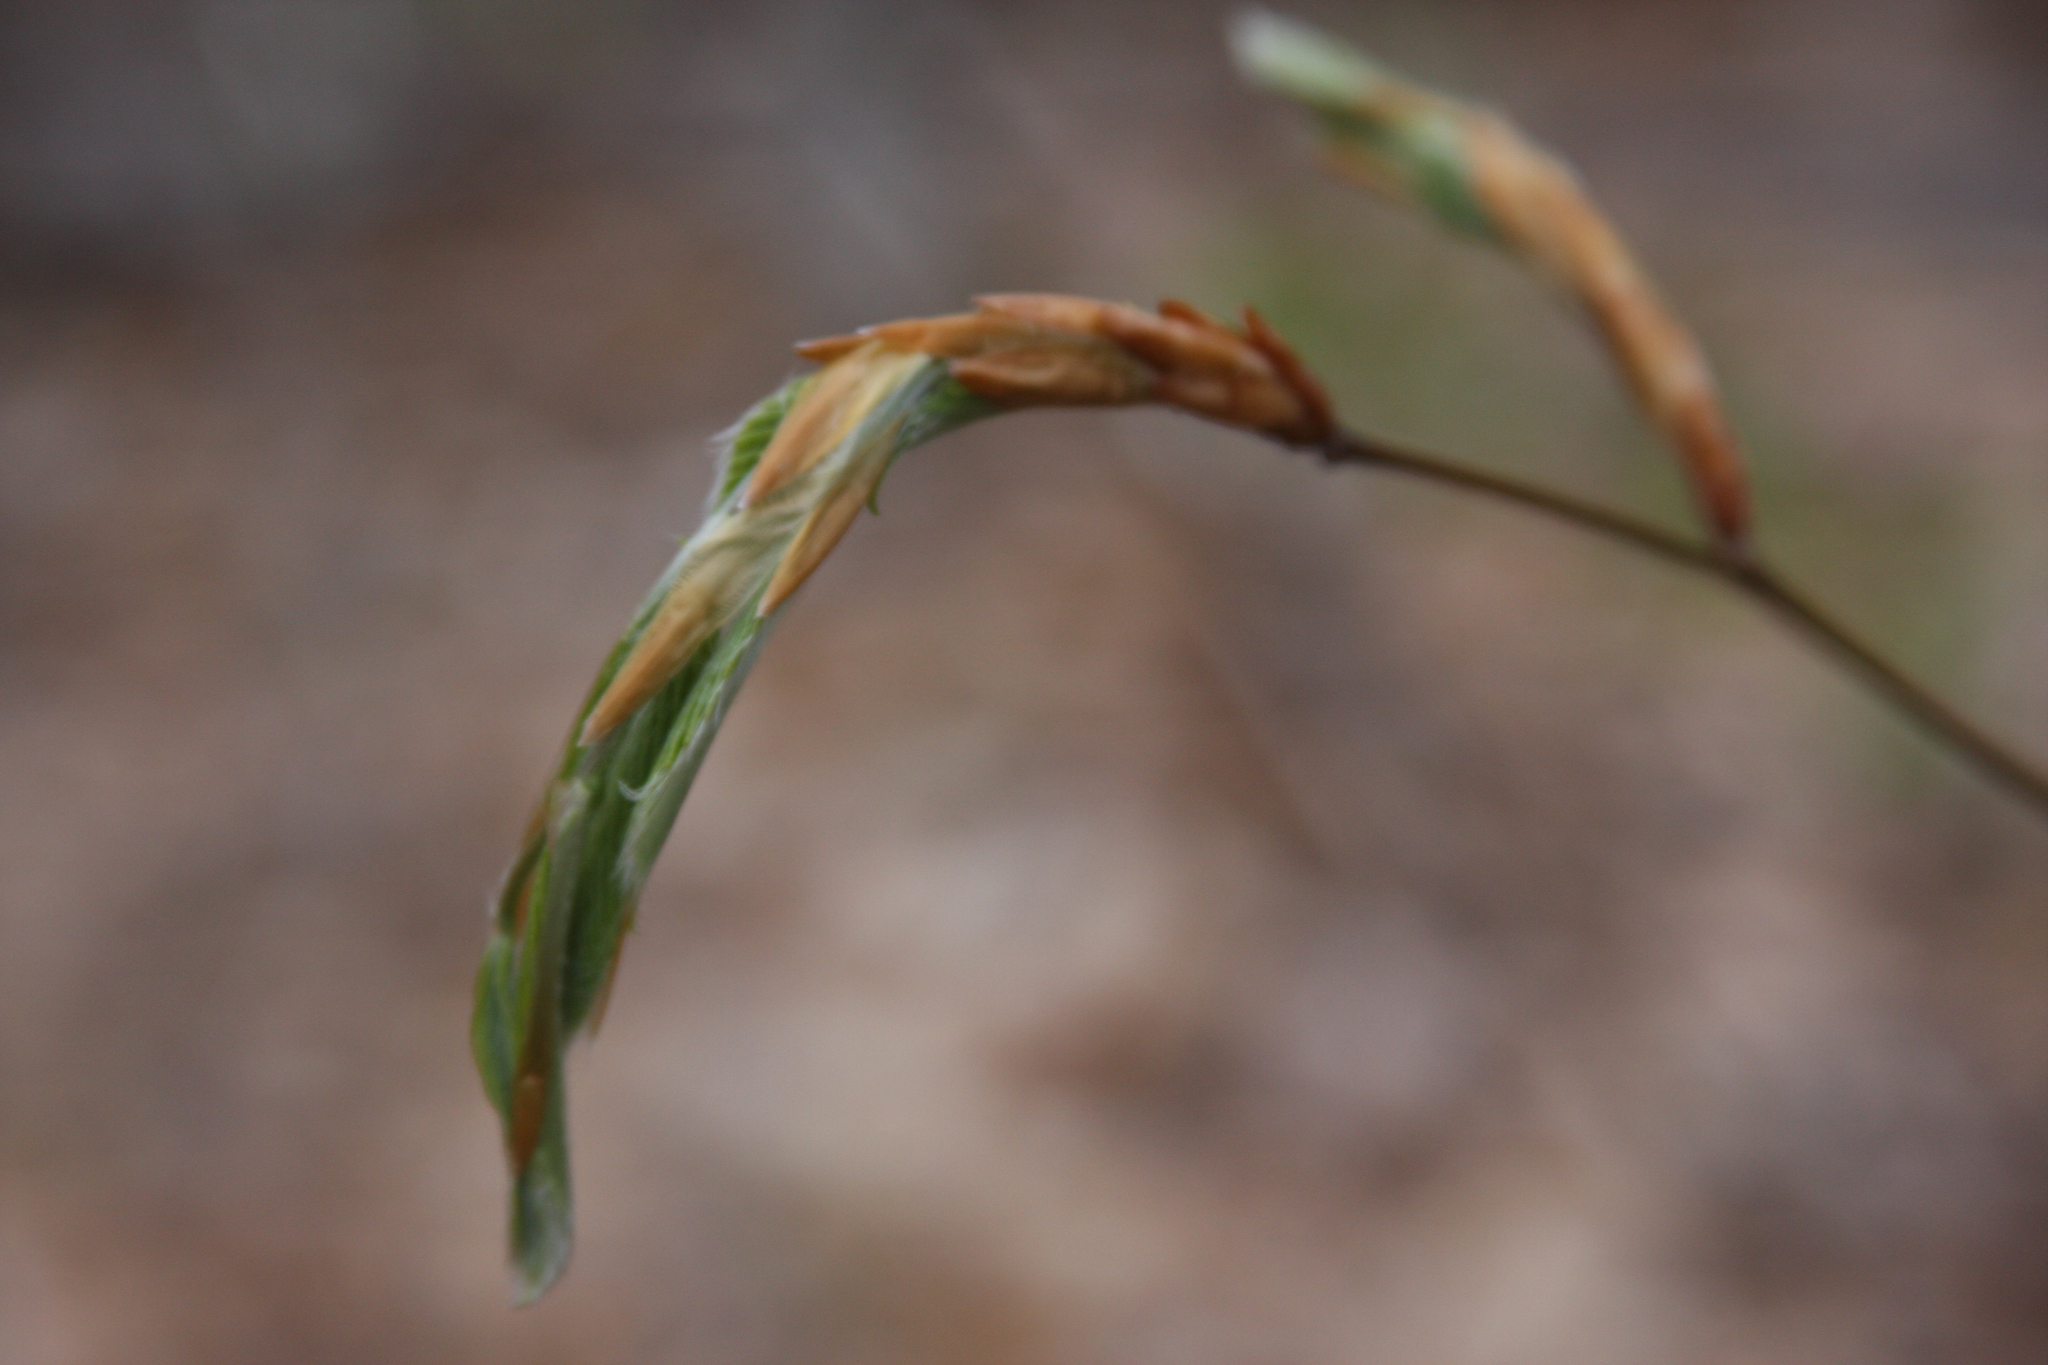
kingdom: Plantae
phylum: Tracheophyta
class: Magnoliopsida
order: Fagales
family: Fagaceae
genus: Fagus
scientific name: Fagus grandifolia
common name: American beech
